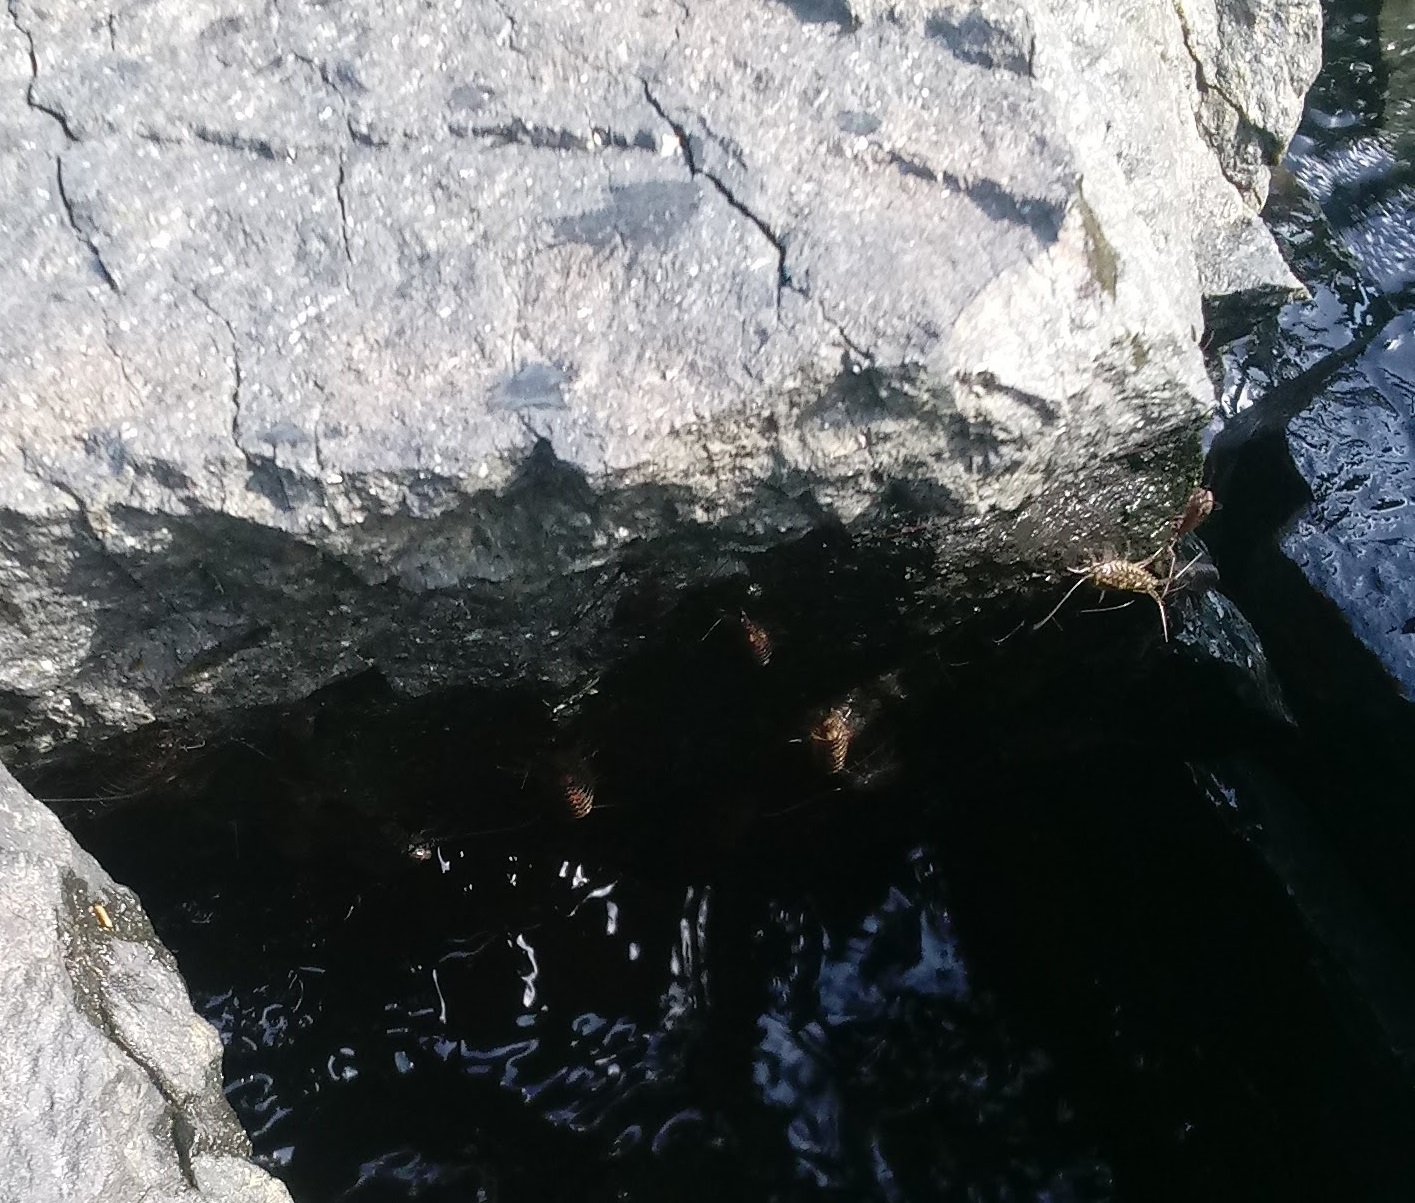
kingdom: Animalia
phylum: Arthropoda
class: Malacostraca
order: Isopoda
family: Ligiidae
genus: Ligia
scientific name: Ligia exotica
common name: Wharf roach
